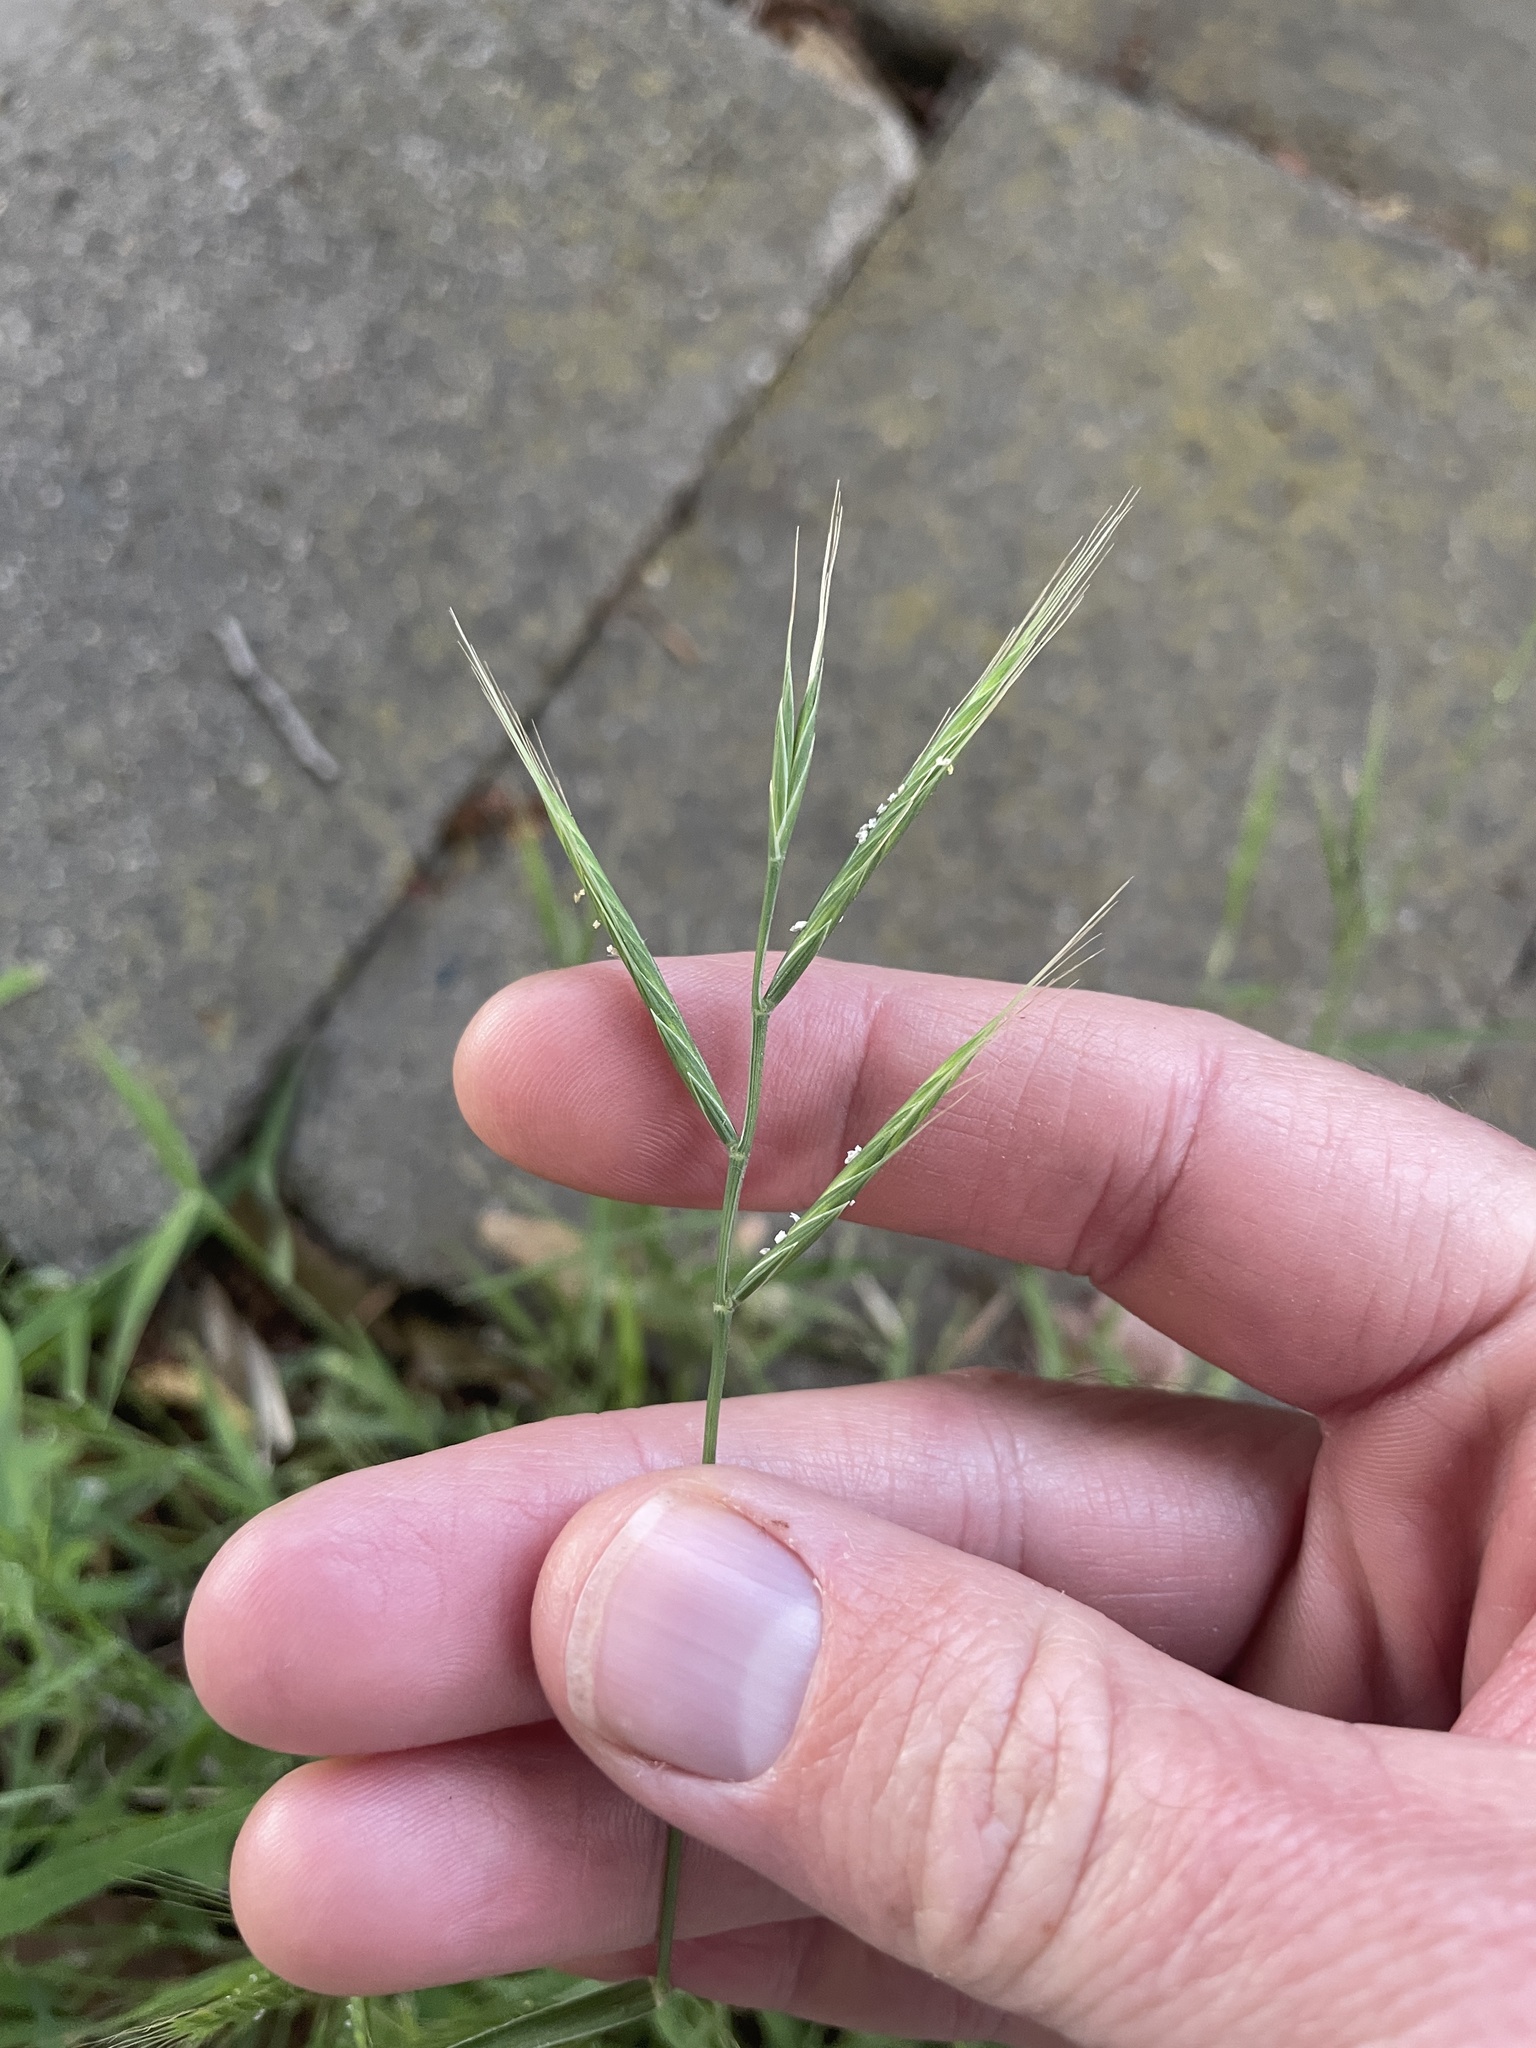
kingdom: Plantae
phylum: Tracheophyta
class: Liliopsida
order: Poales
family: Poaceae
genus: Brachypodium
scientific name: Brachypodium distachyon
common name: Stiff brome
